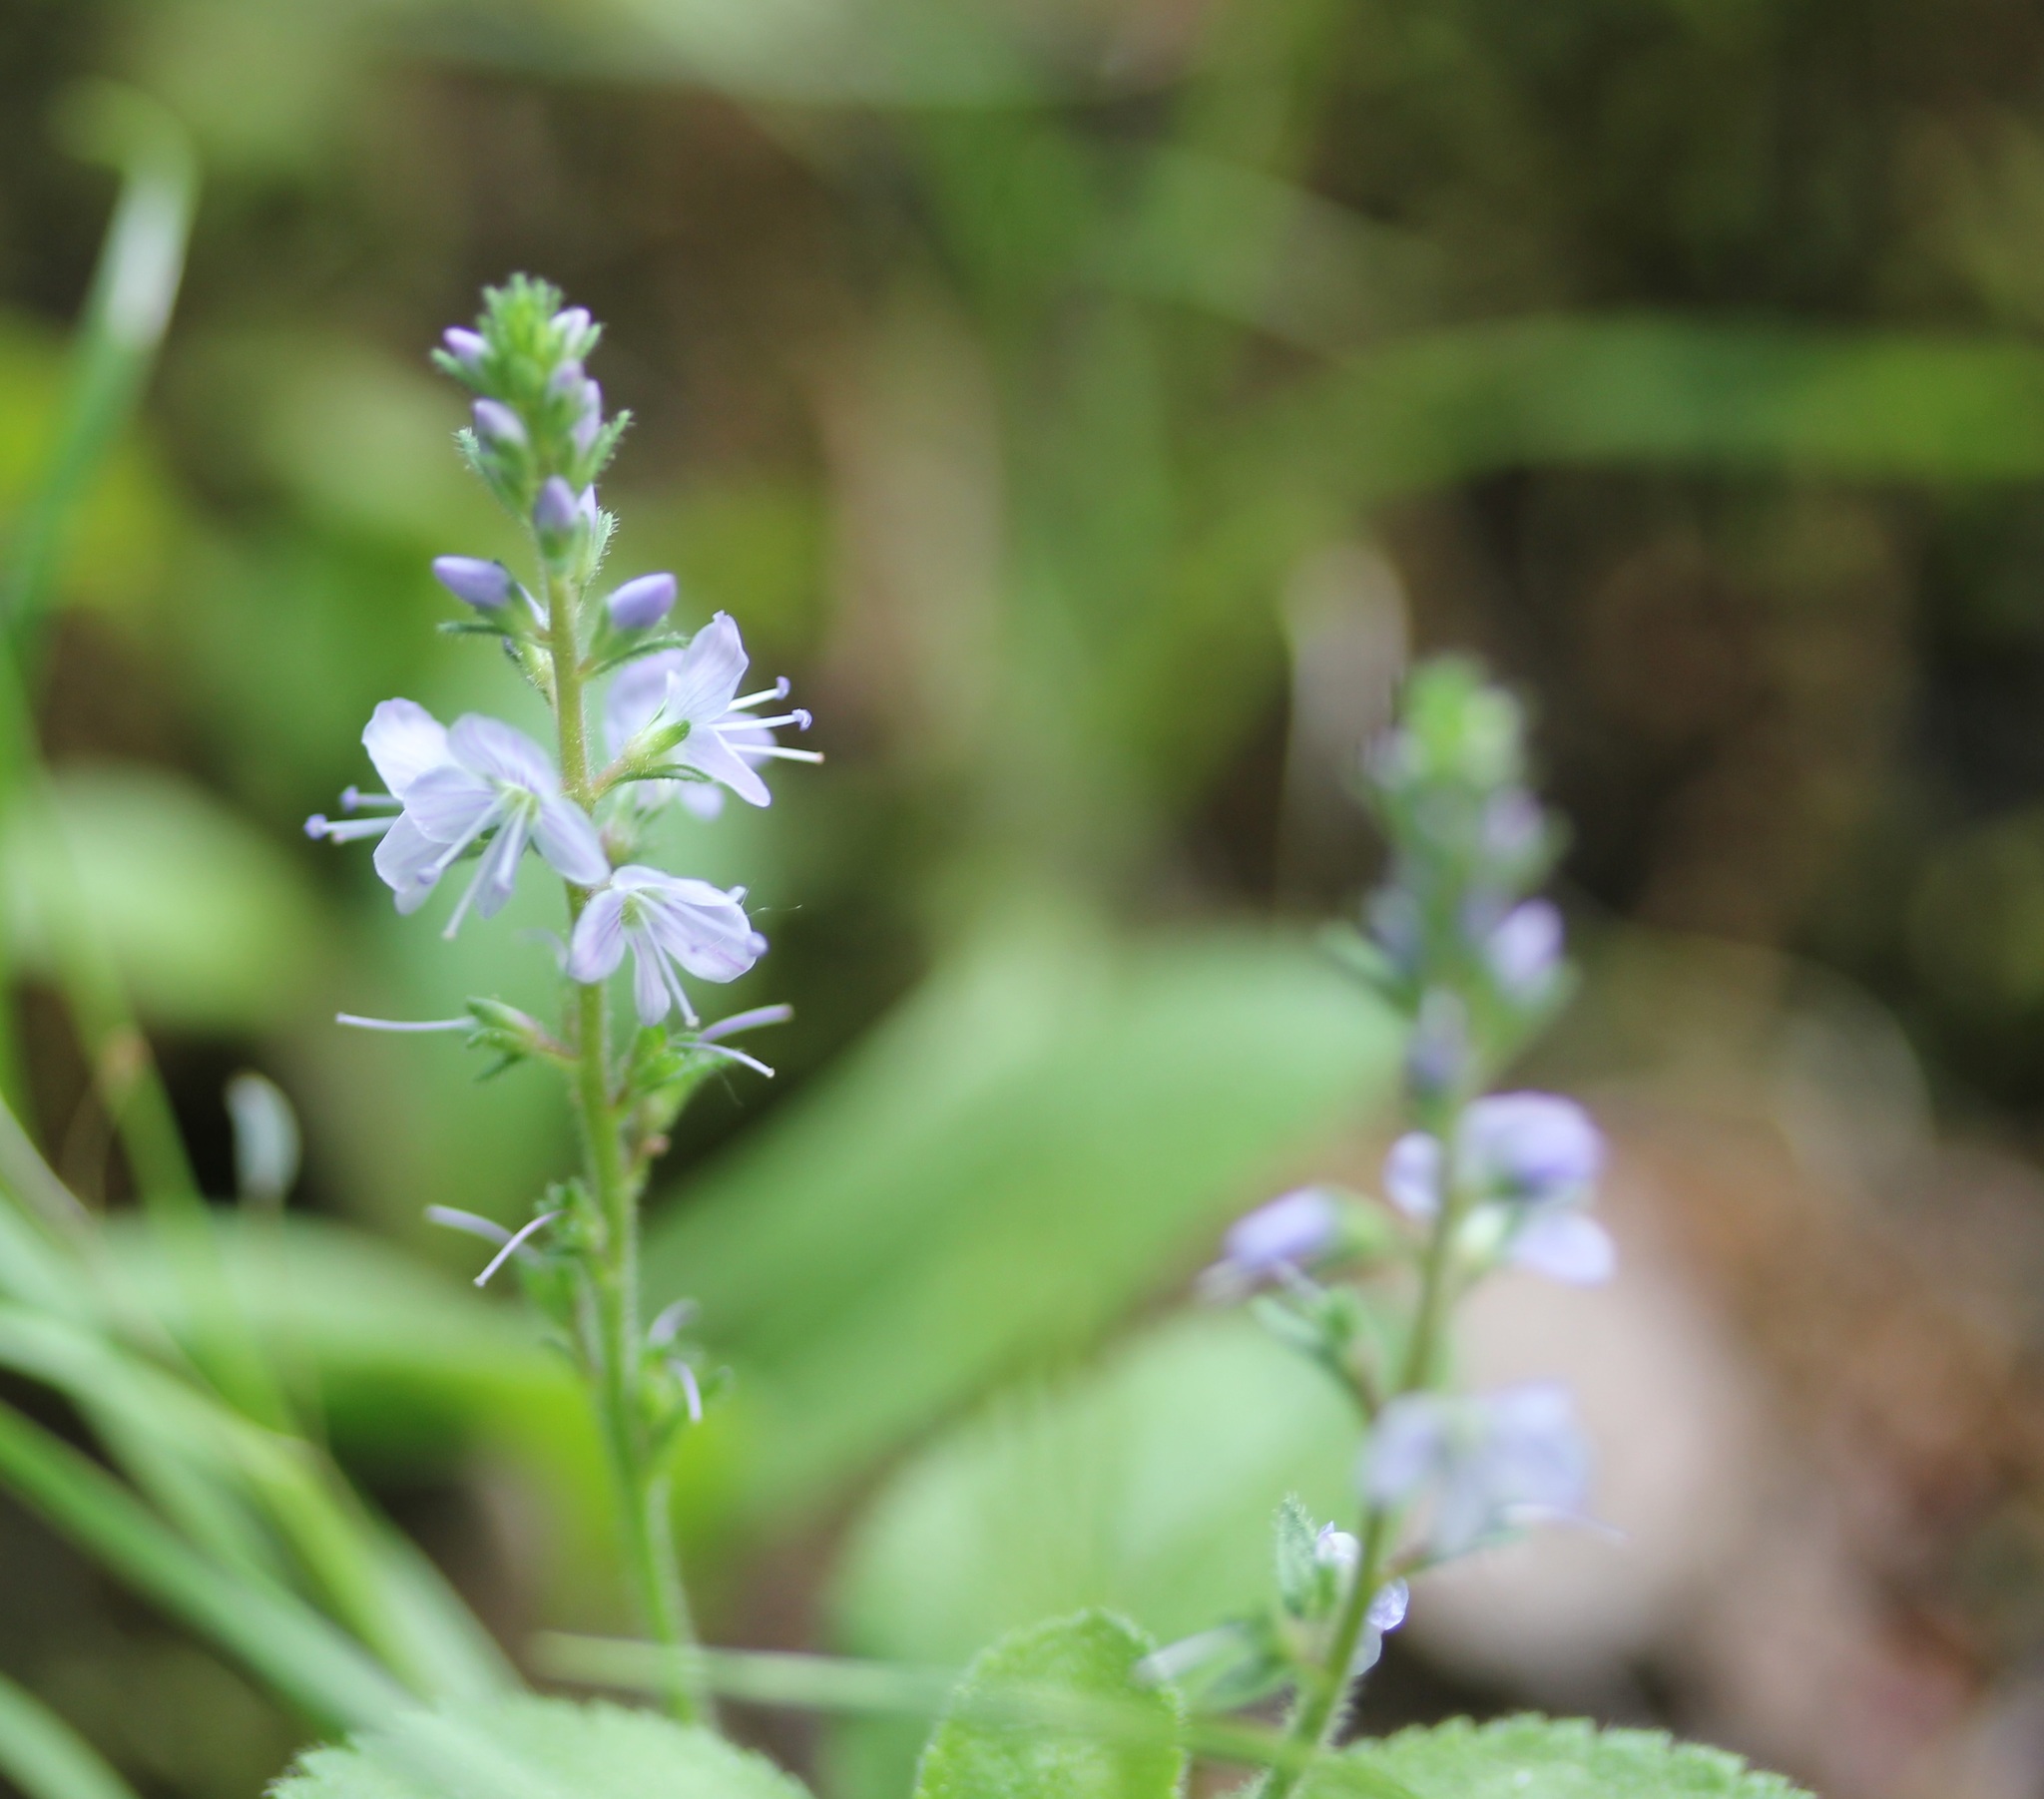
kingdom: Plantae
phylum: Tracheophyta
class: Magnoliopsida
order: Lamiales
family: Plantaginaceae
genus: Veronica
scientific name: Veronica officinalis
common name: Common speedwell
